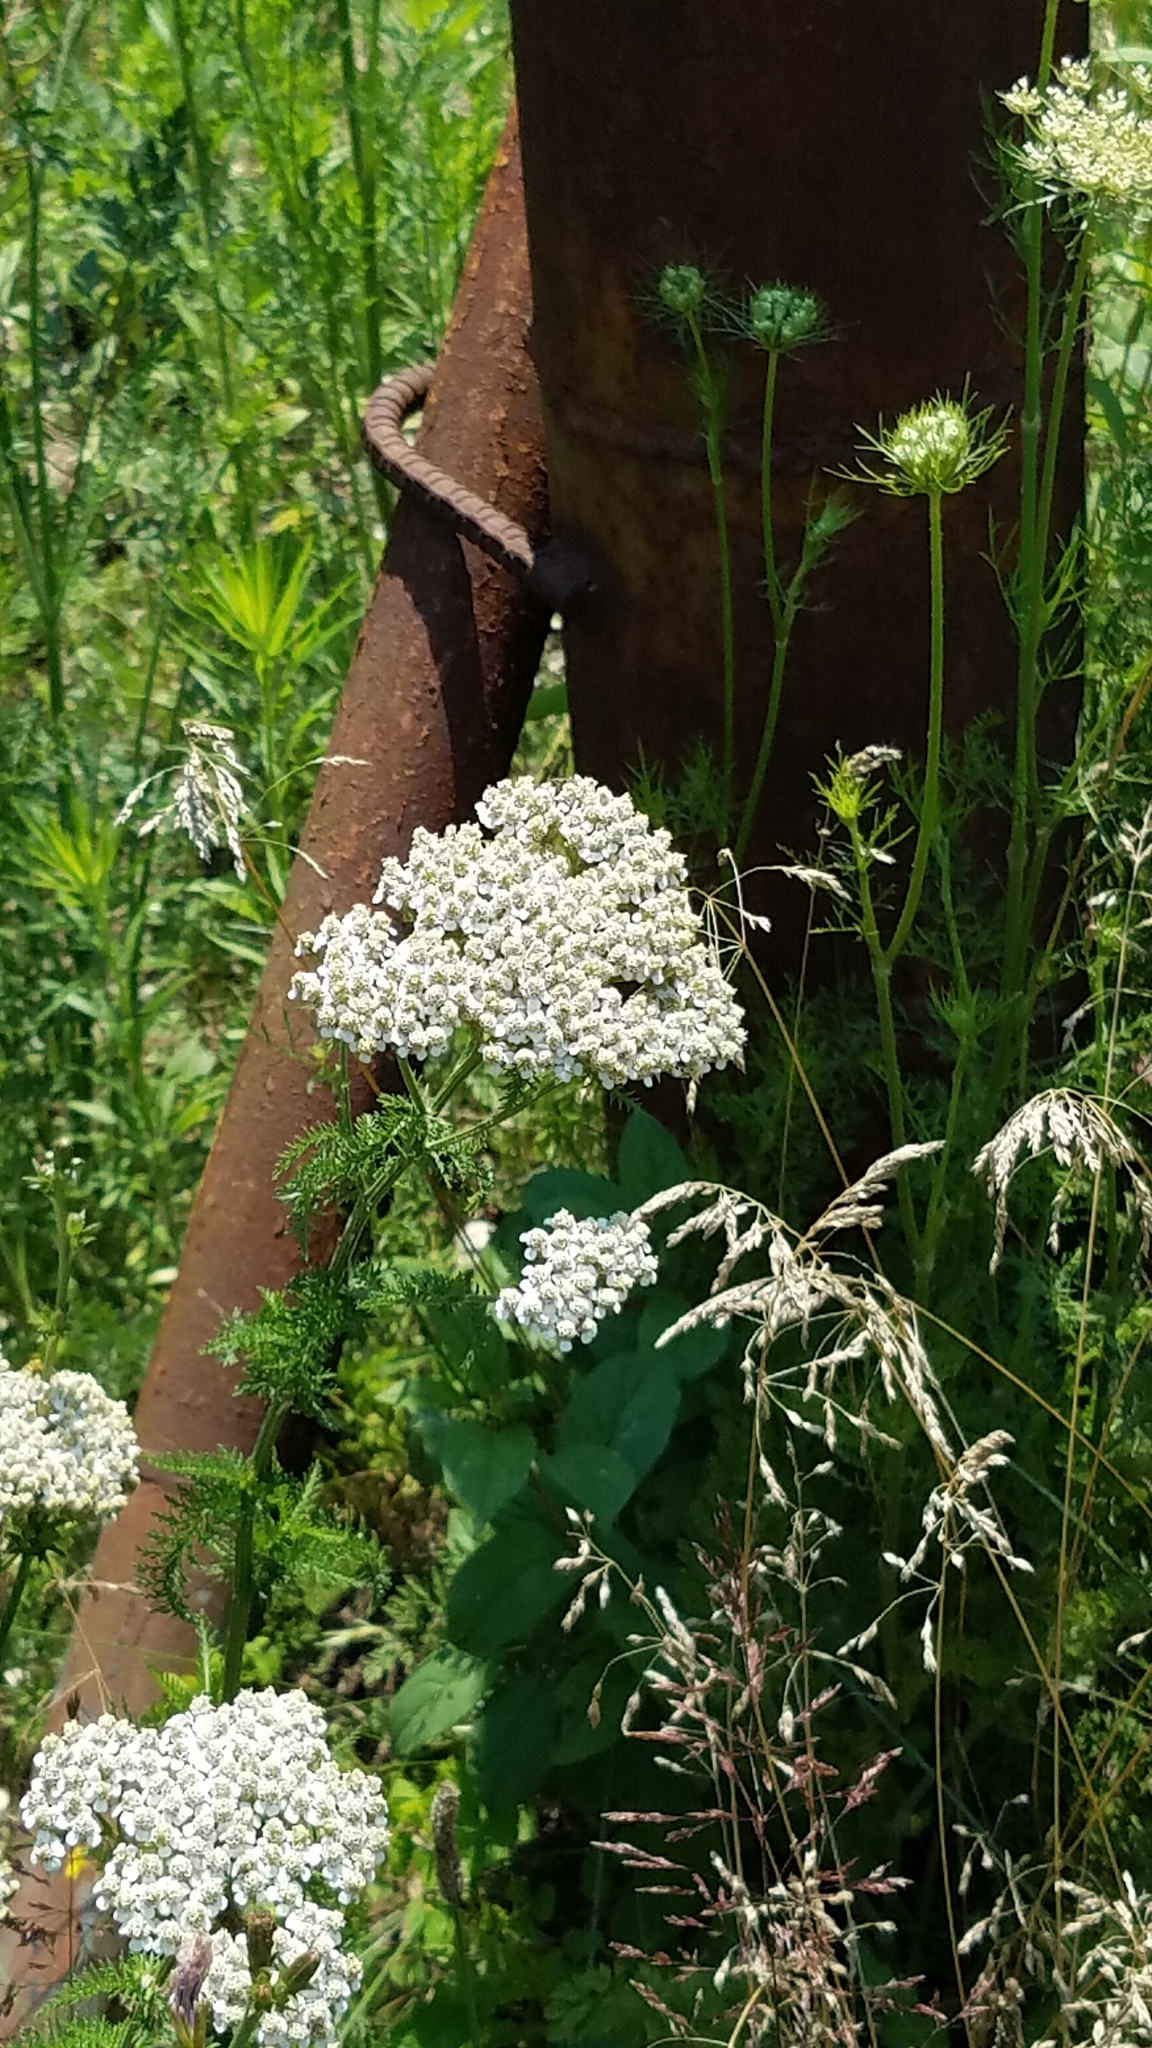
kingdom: Plantae
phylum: Tracheophyta
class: Magnoliopsida
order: Asterales
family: Asteraceae
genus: Achillea
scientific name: Achillea millefolium
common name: Yarrow
